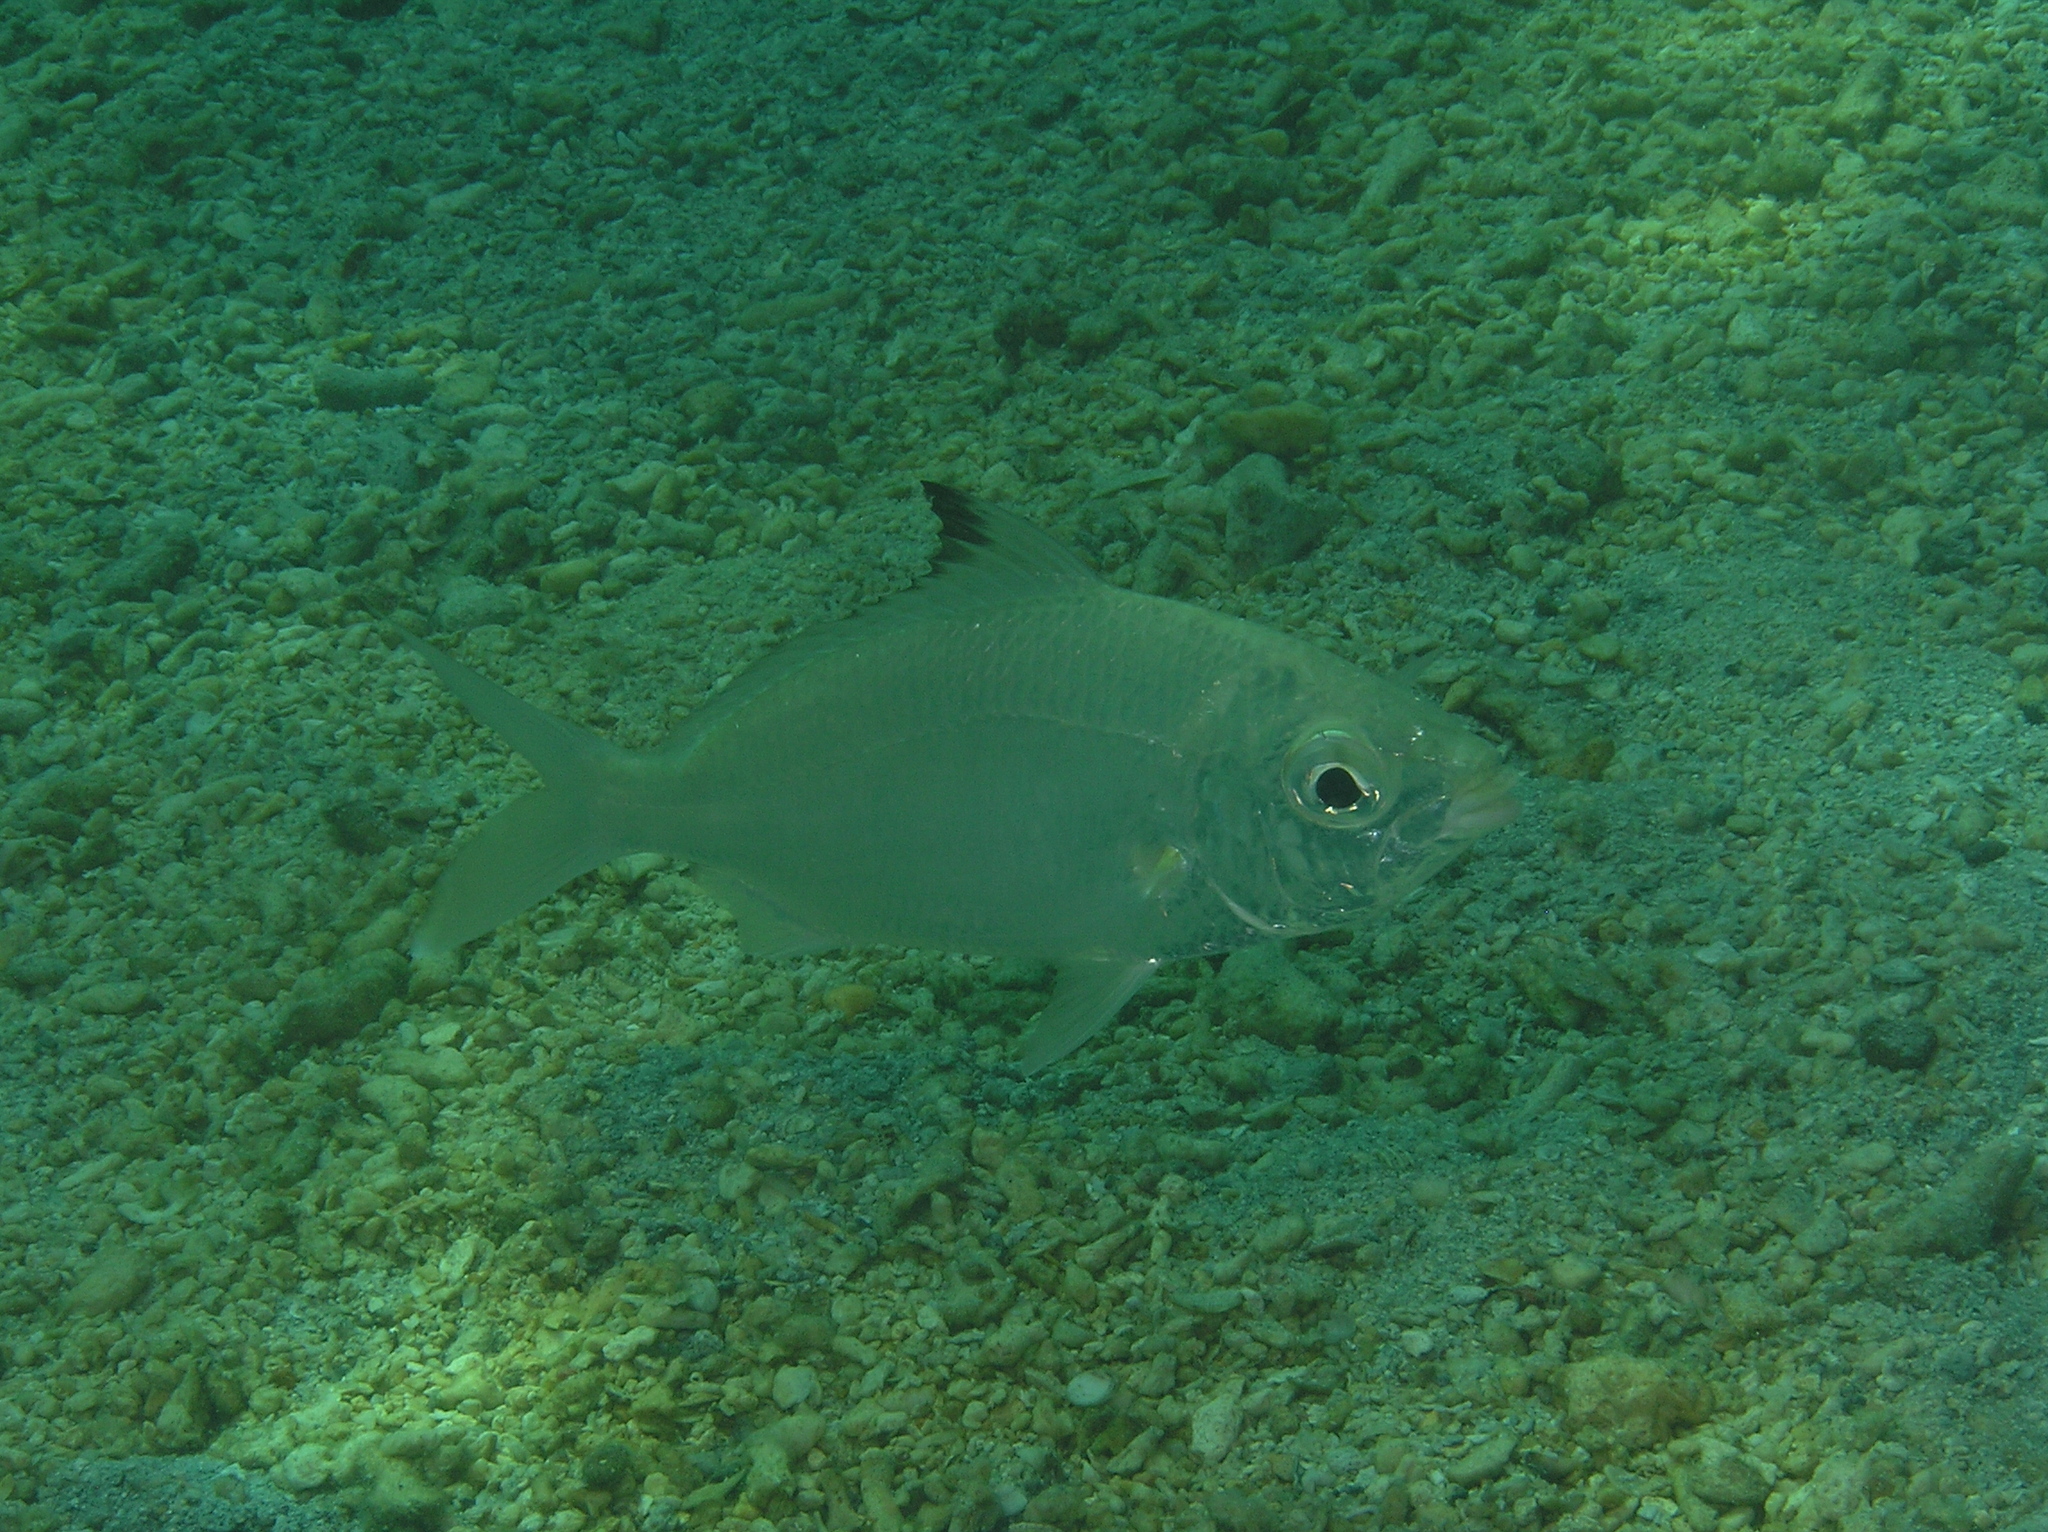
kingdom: Animalia
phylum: Chordata
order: Perciformes
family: Gerreidae
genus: Gerres
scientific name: Gerres oyena
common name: Common silver-biddy
